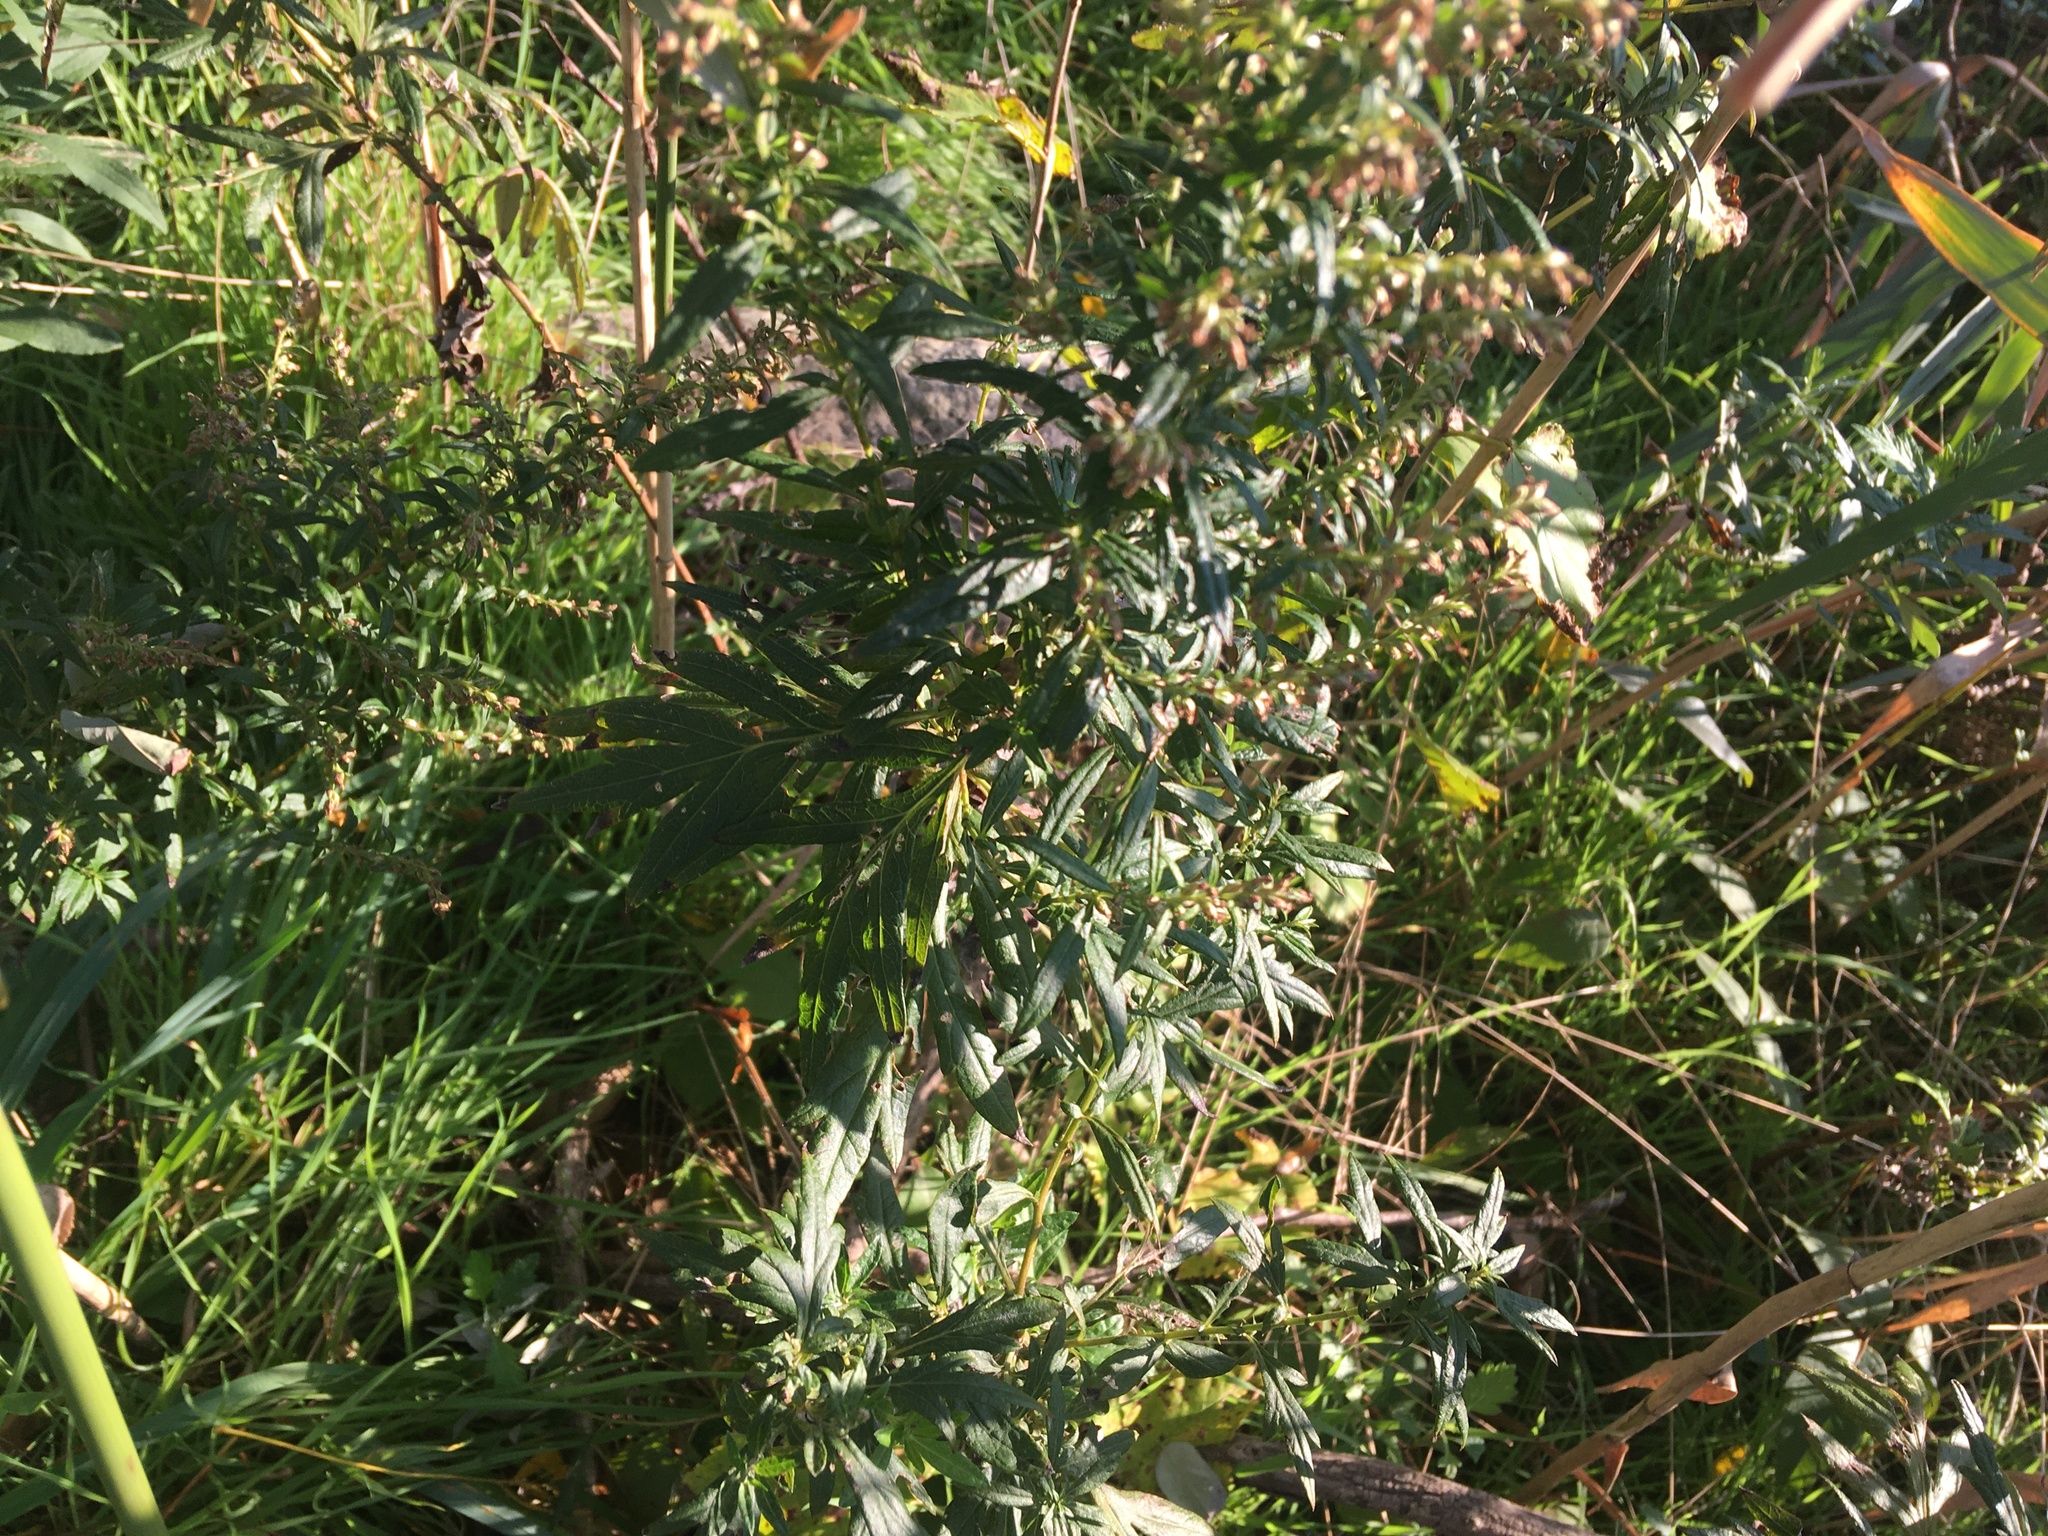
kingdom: Plantae
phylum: Tracheophyta
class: Magnoliopsida
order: Asterales
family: Asteraceae
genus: Artemisia
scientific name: Artemisia vulgaris
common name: Mugwort
